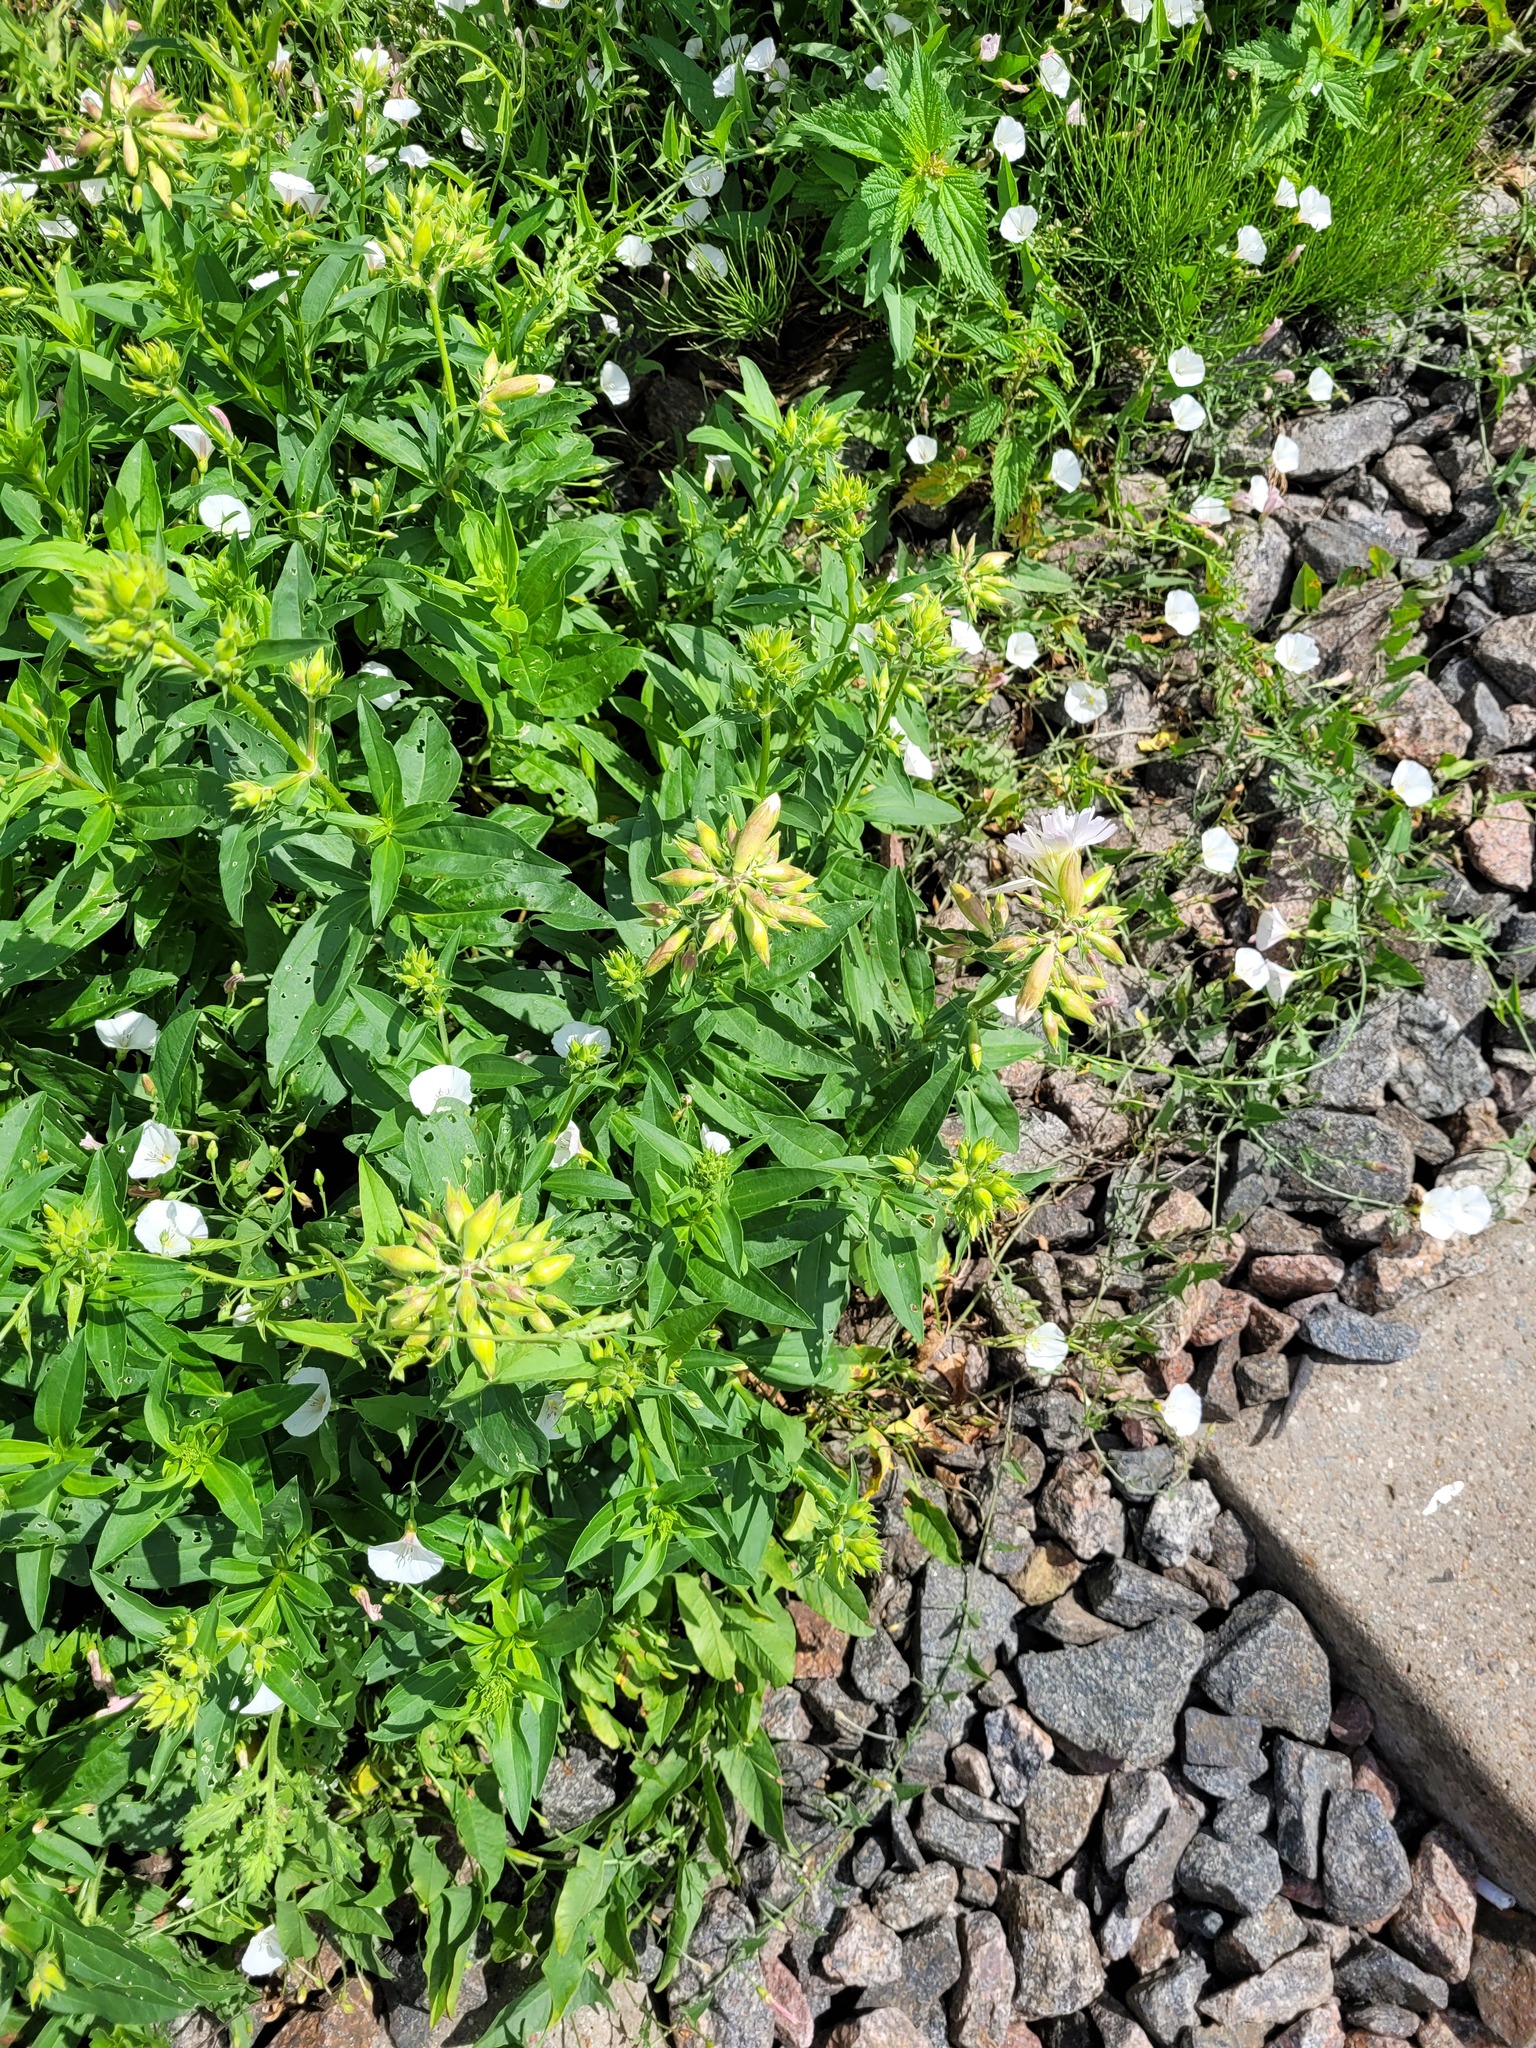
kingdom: Plantae
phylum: Tracheophyta
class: Magnoliopsida
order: Caryophyllales
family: Caryophyllaceae
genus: Saponaria
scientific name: Saponaria officinalis
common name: Soapwort
